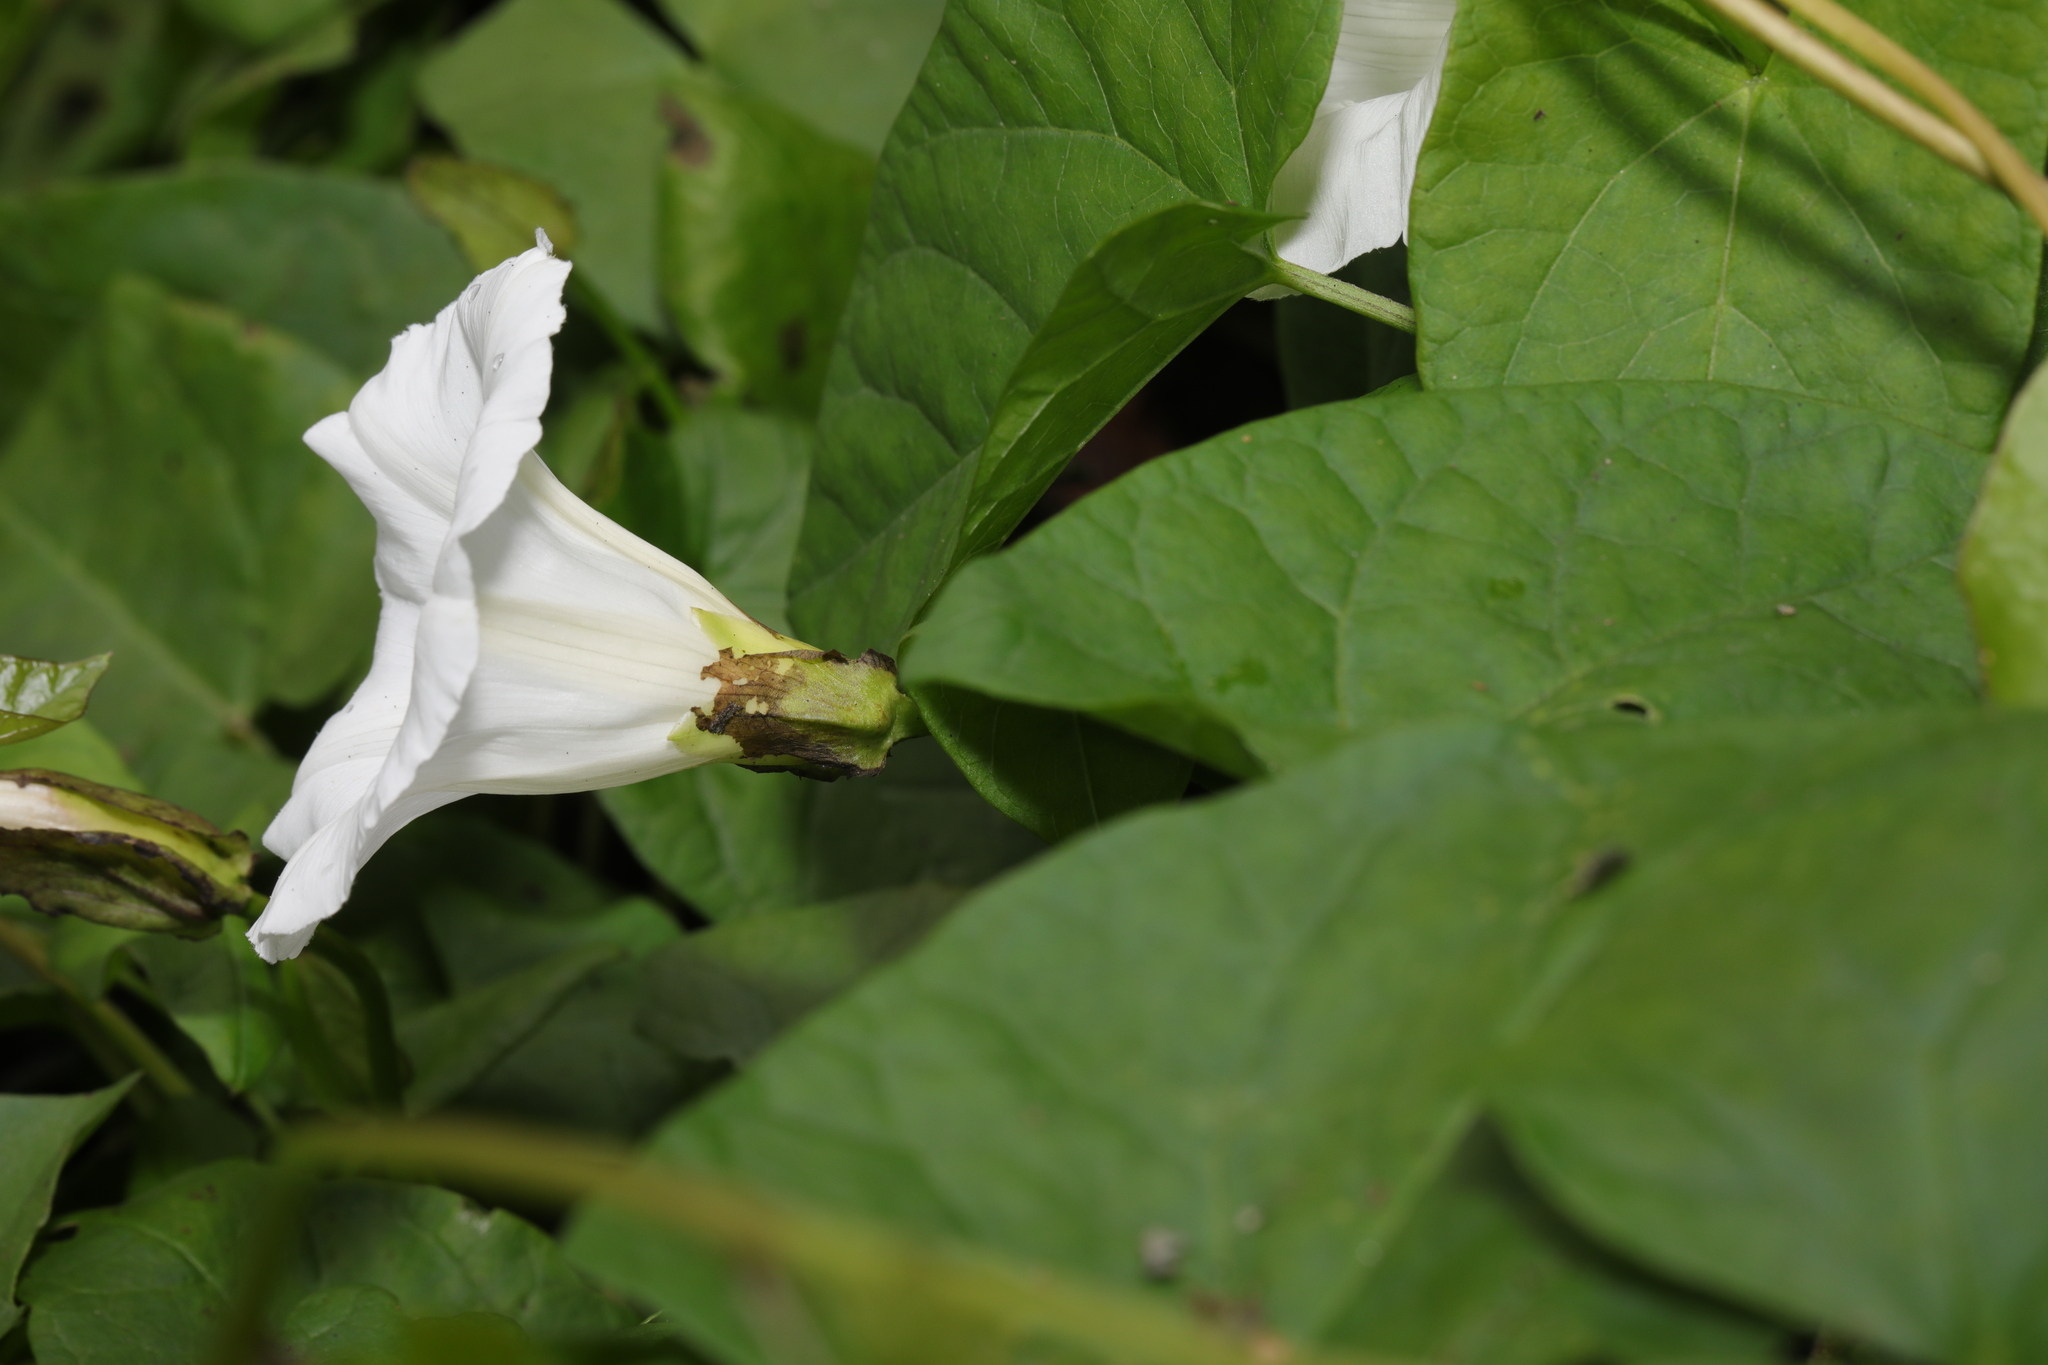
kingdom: Plantae
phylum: Tracheophyta
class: Magnoliopsida
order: Solanales
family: Convolvulaceae
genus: Calystegia
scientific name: Calystegia sepium
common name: Hedge bindweed
